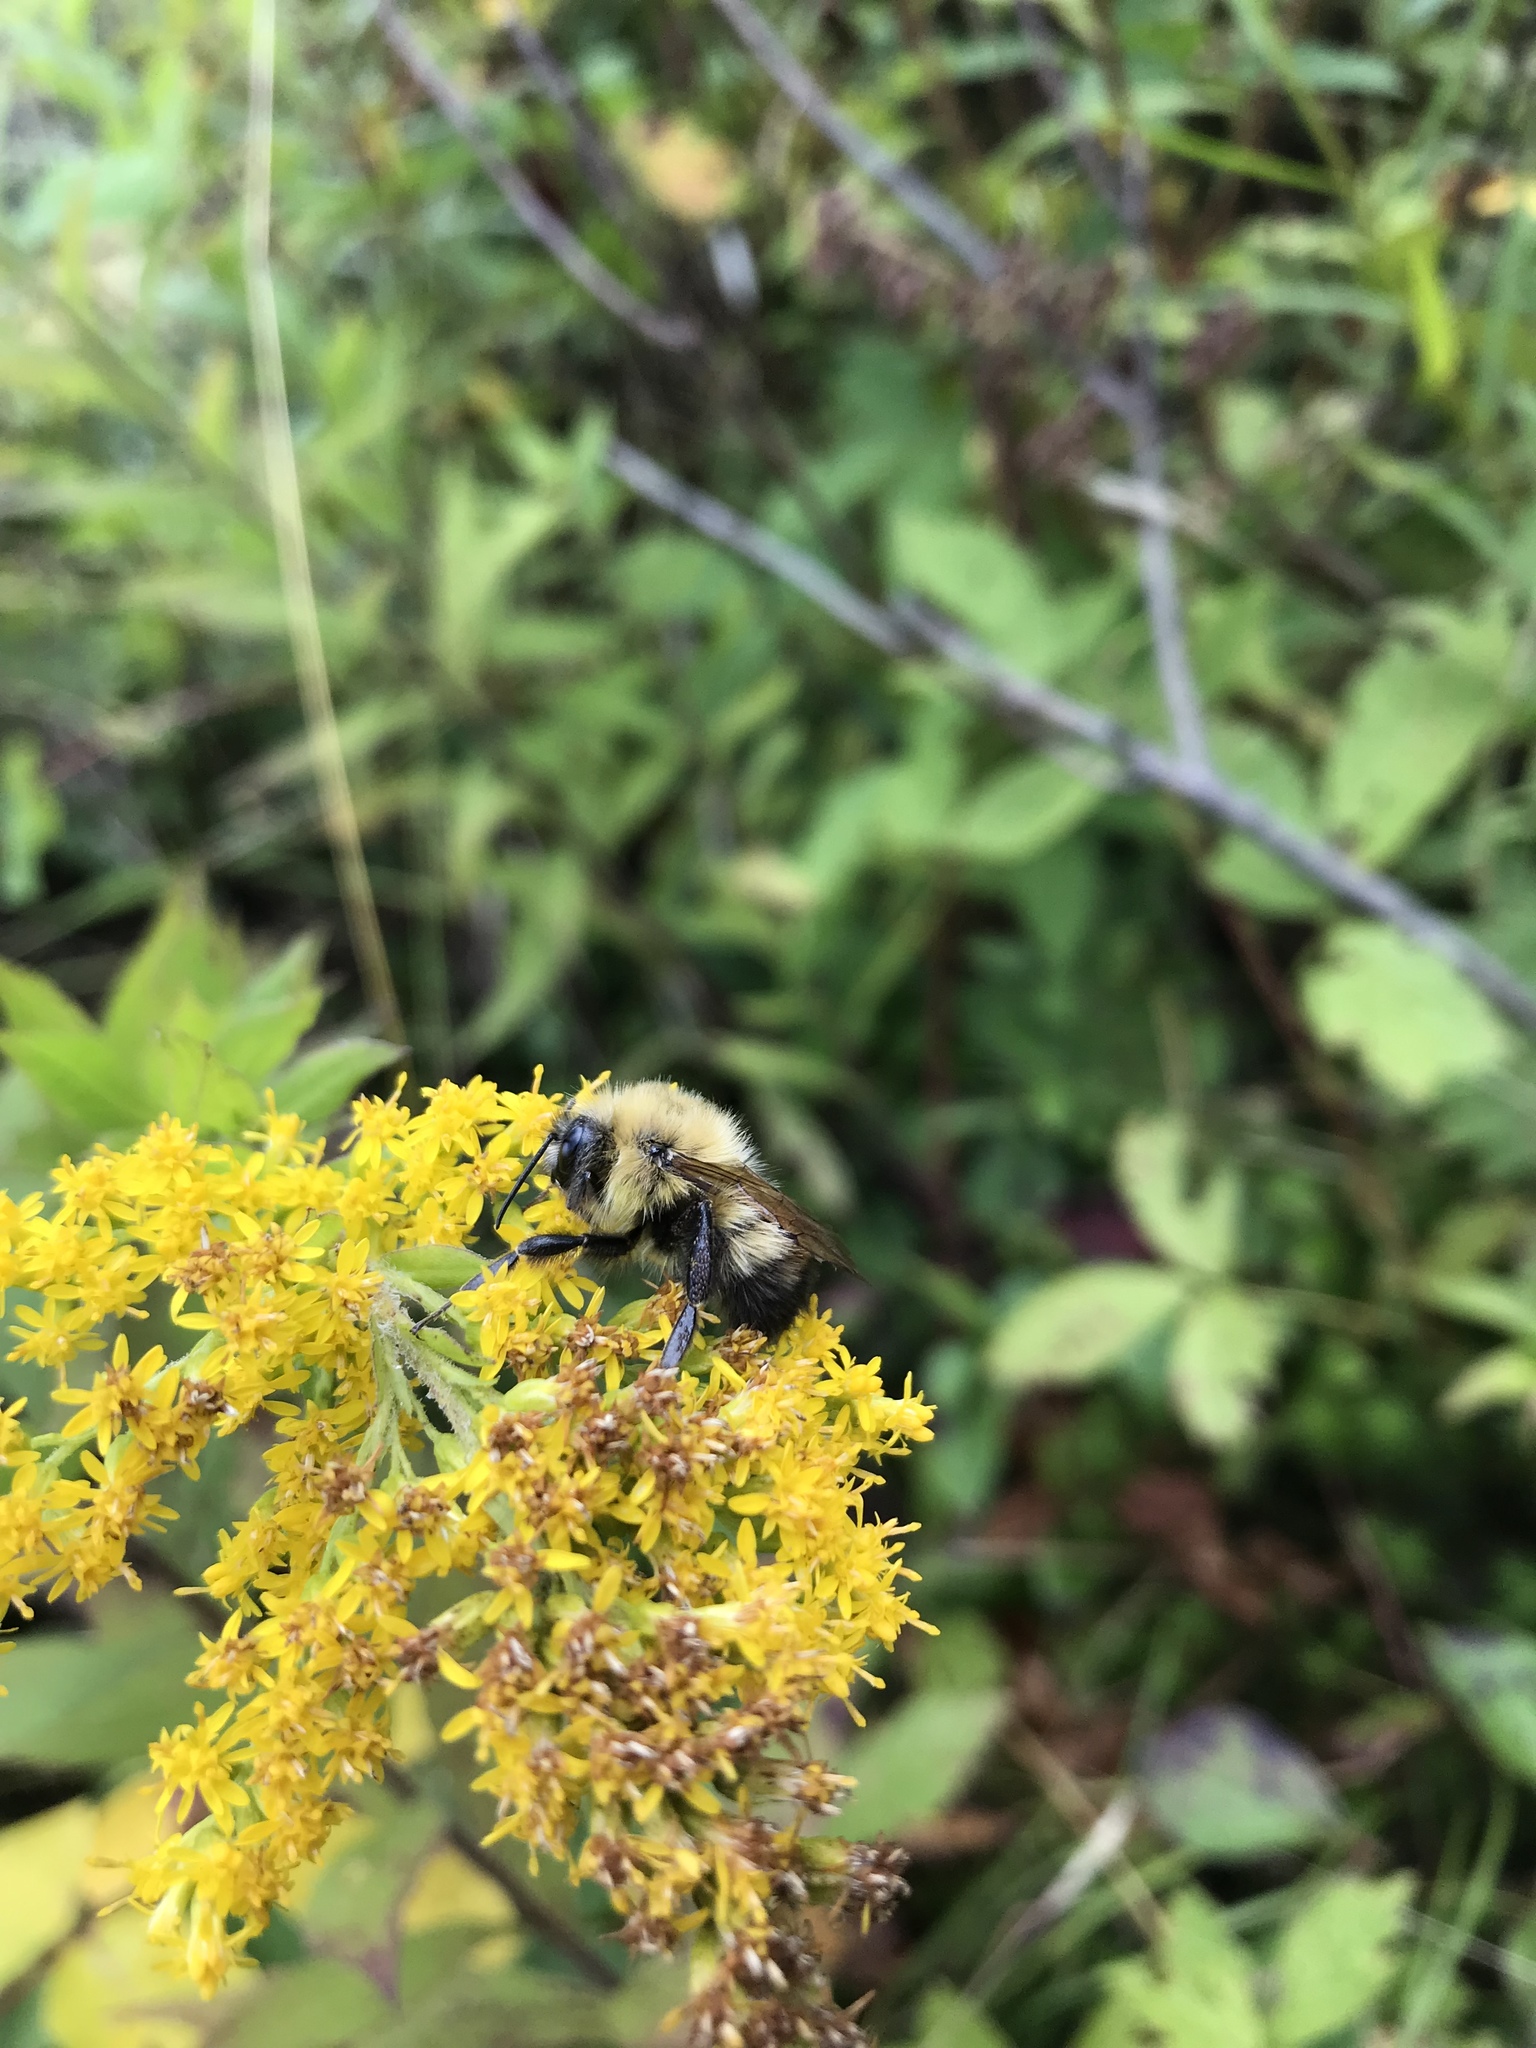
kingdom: Animalia
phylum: Arthropoda
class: Insecta
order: Hymenoptera
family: Apidae
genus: Bombus
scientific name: Bombus vagans
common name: Half-black bumble bee
